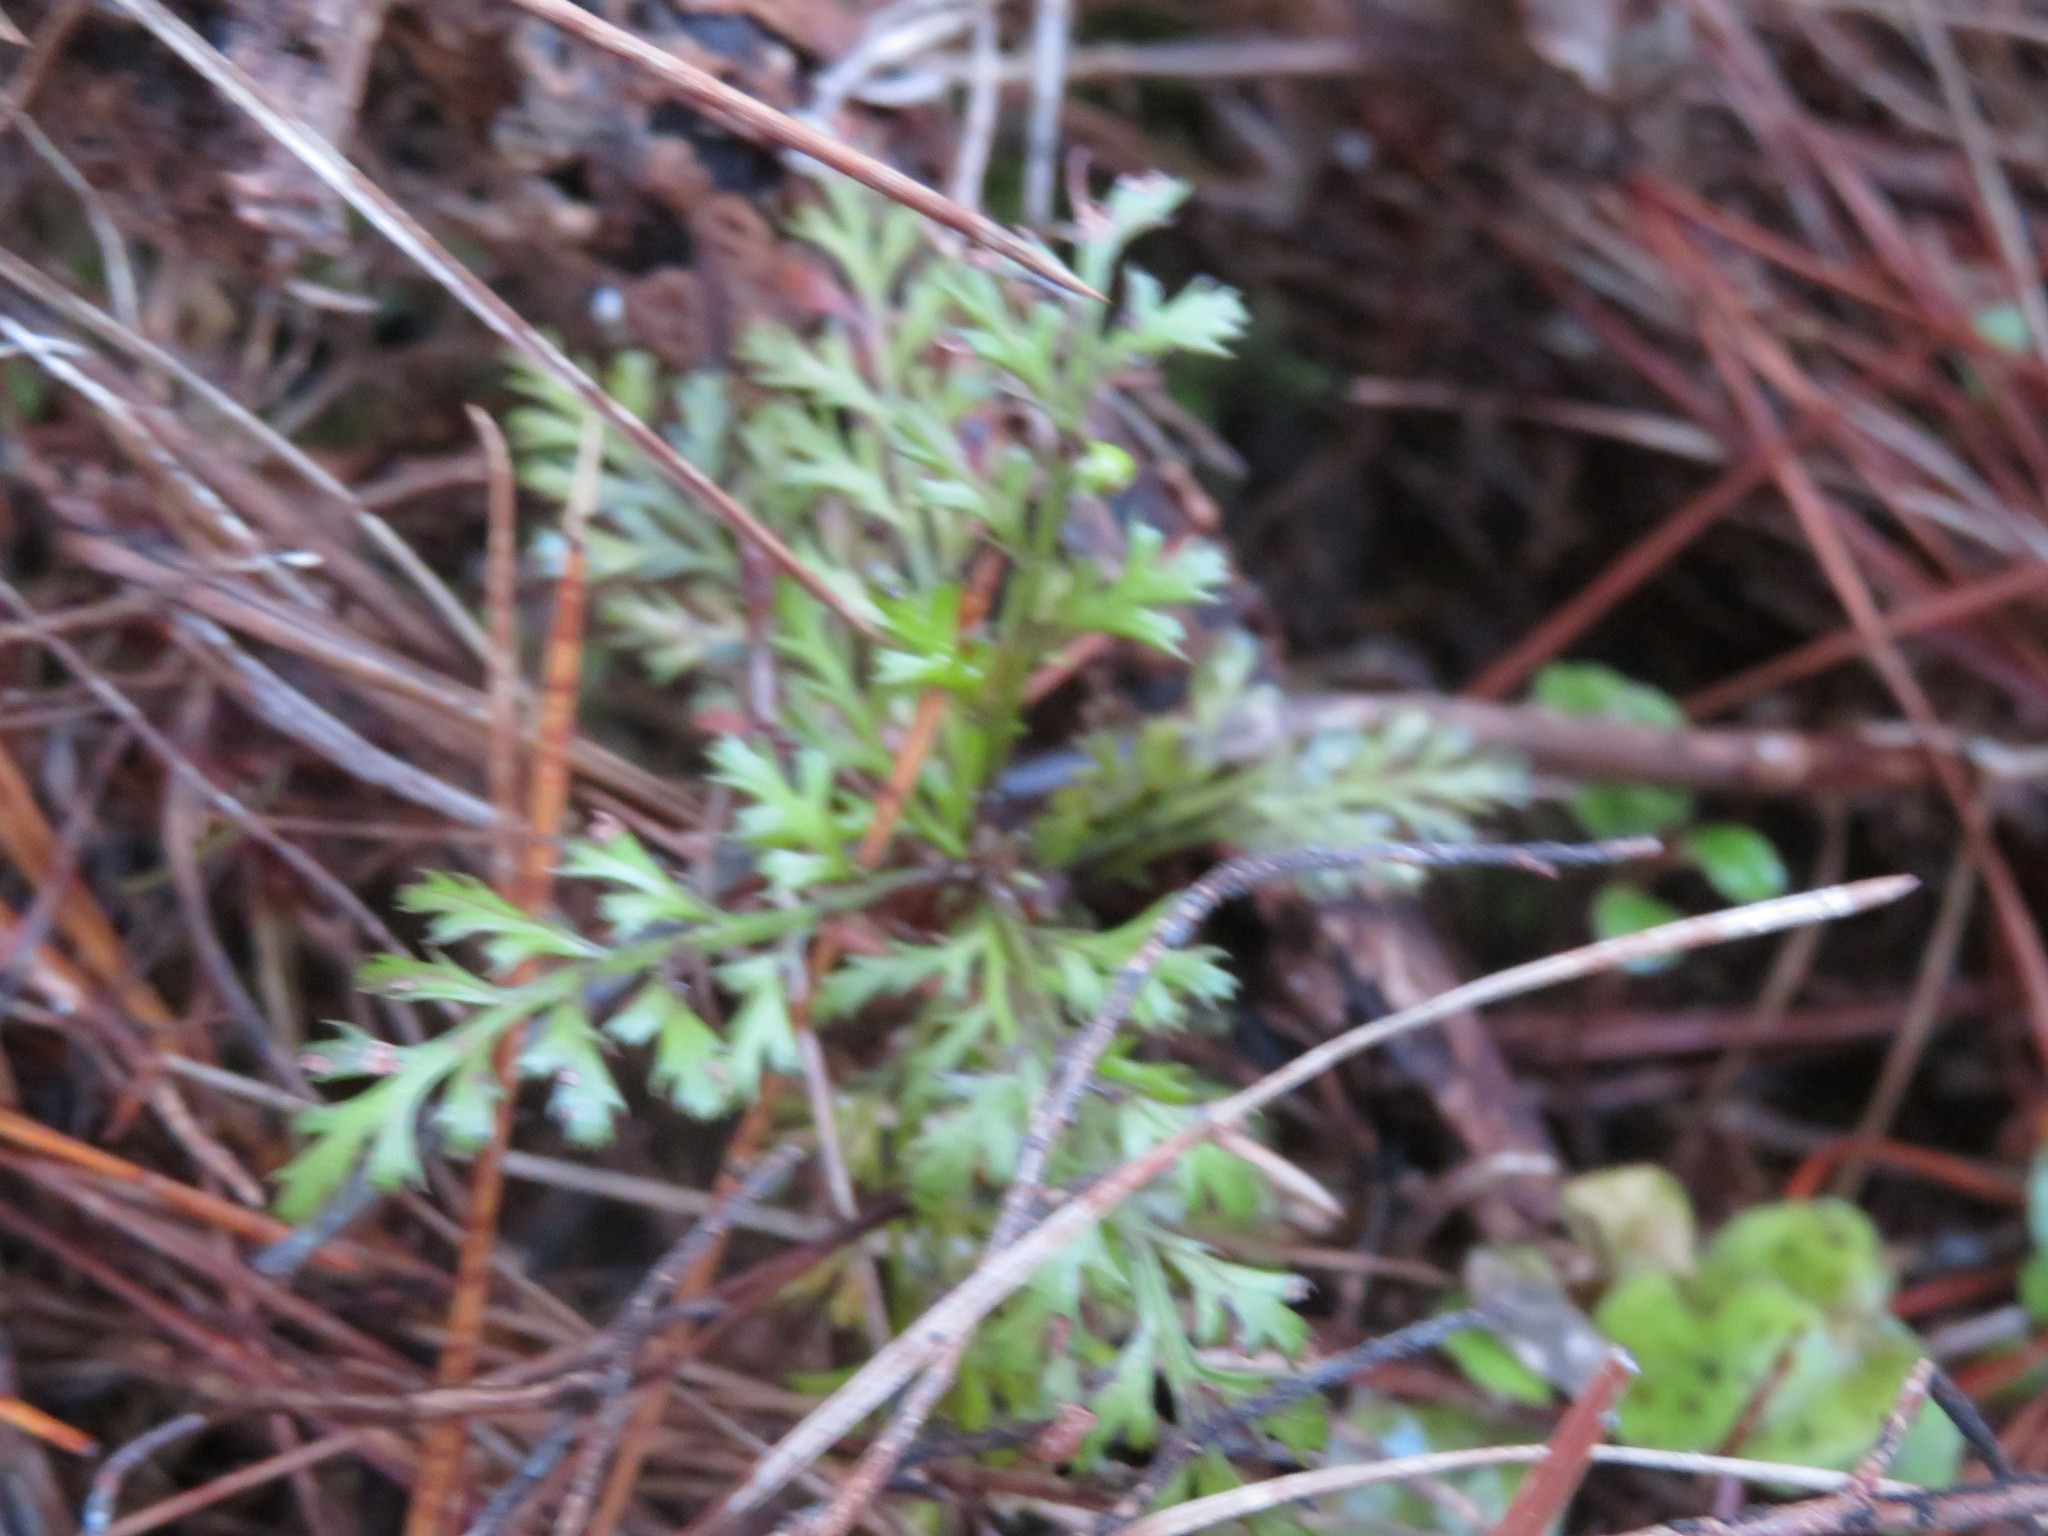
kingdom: Plantae
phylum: Tracheophyta
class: Pinopsida
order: Pinales
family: Phyllocladaceae
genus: Phyllocladus
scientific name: Phyllocladus trichomanoides
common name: Celery pine
